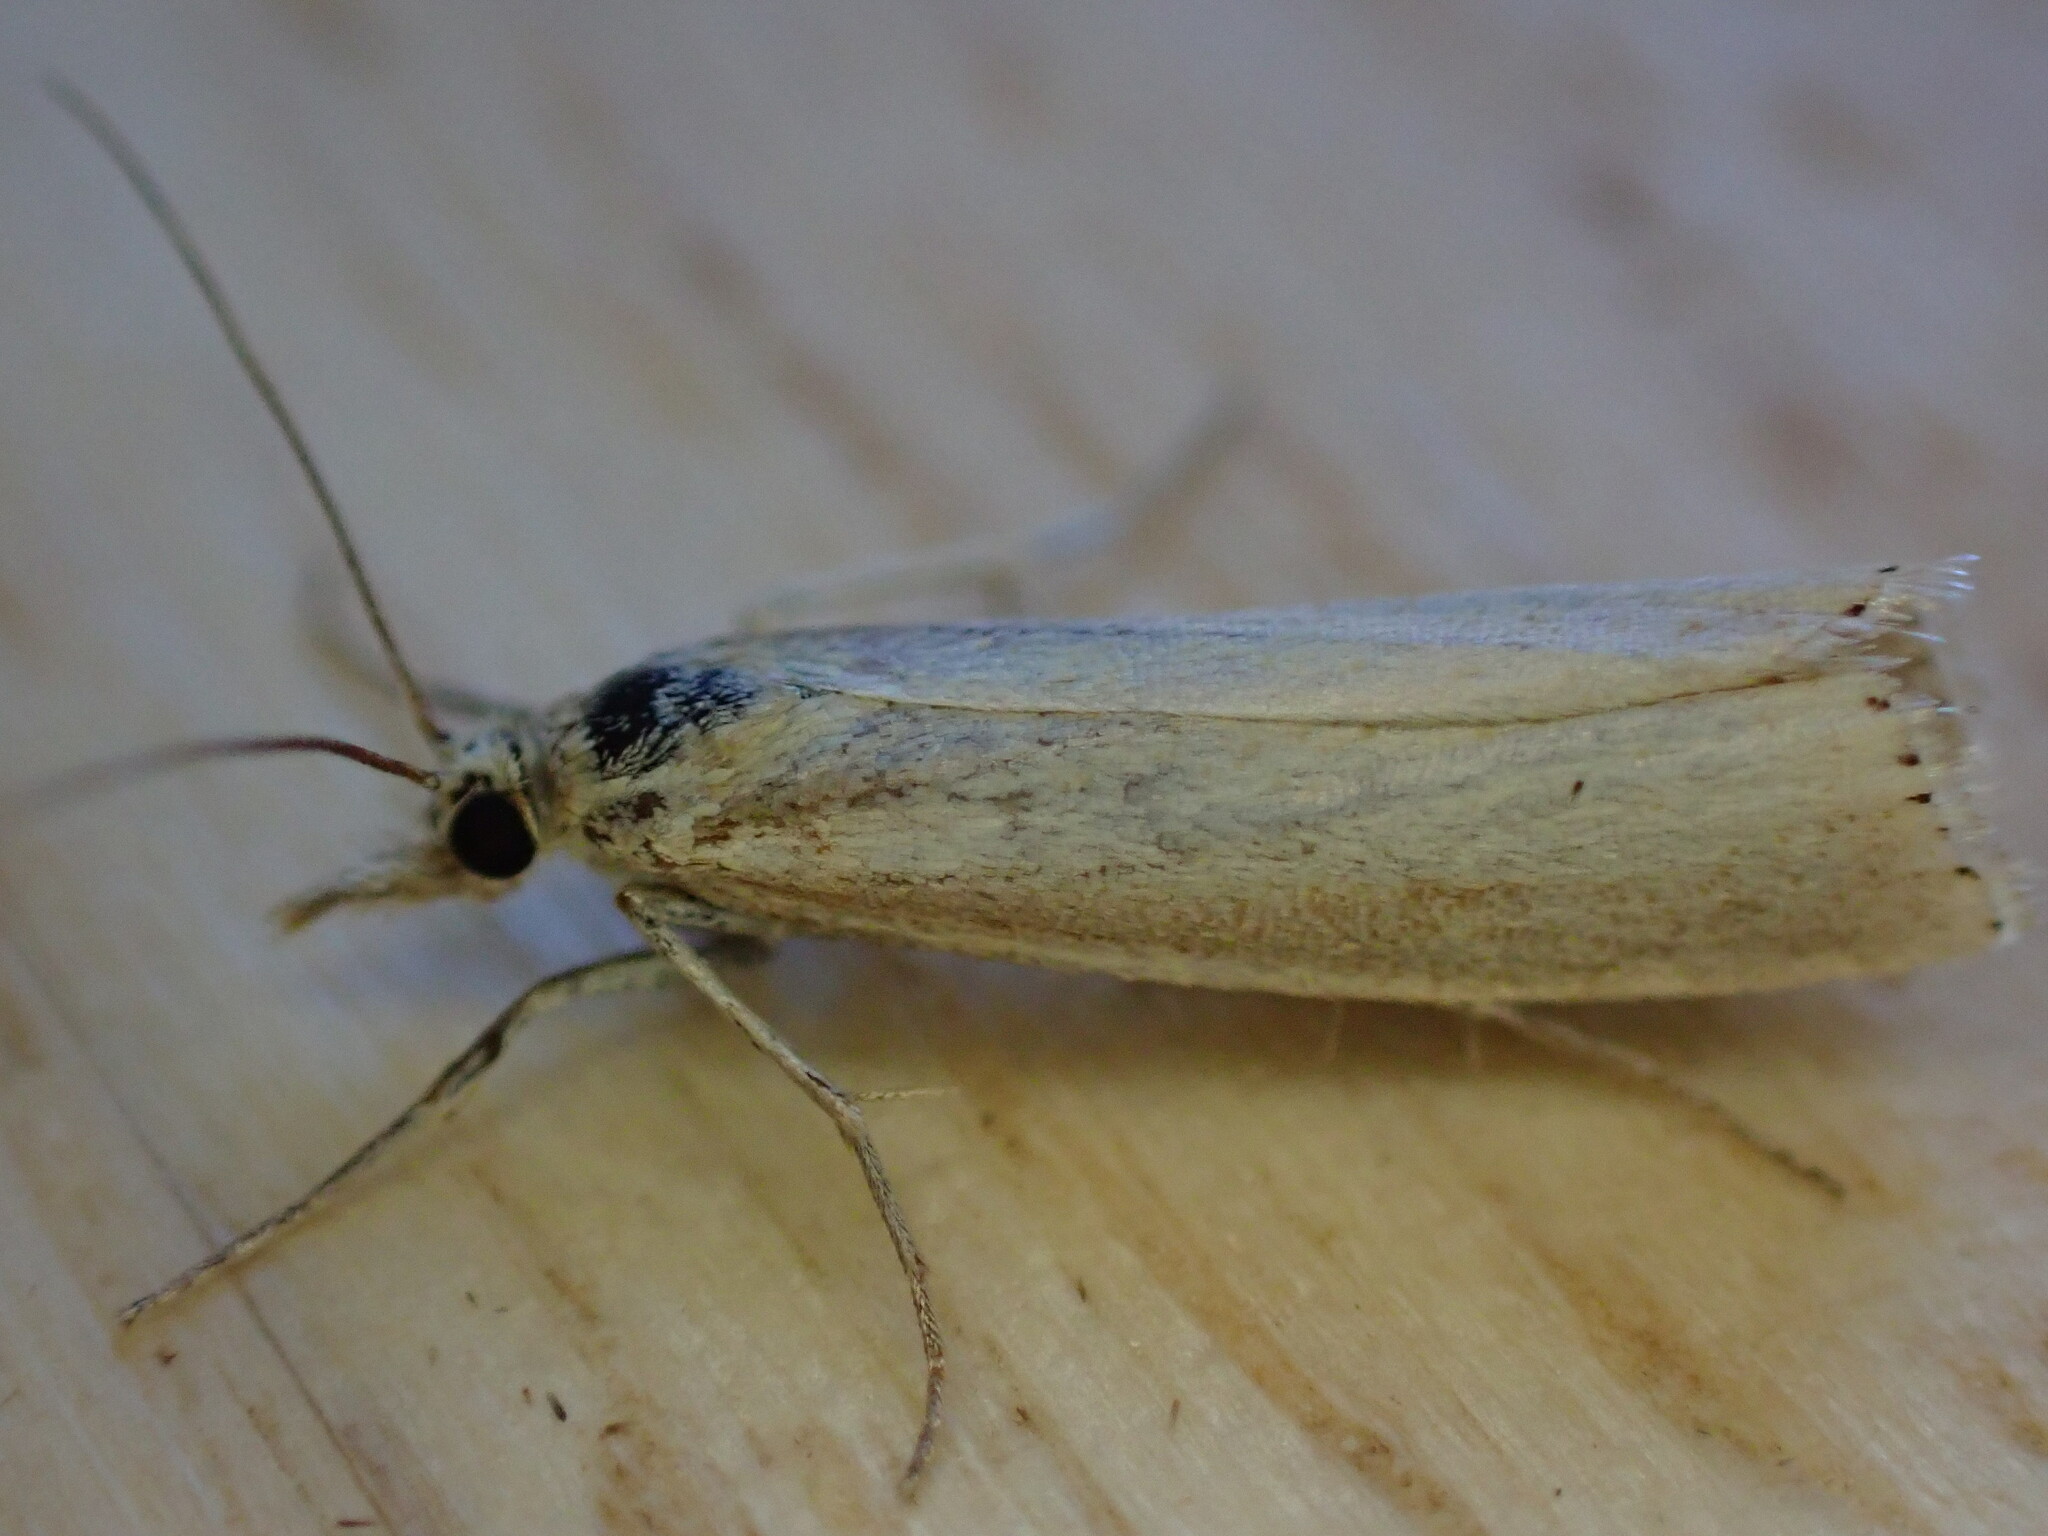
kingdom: Animalia
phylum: Arthropoda
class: Insecta
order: Lepidoptera
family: Crambidae
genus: Agriphila
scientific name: Agriphila straminella
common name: Straw grass-veneer
